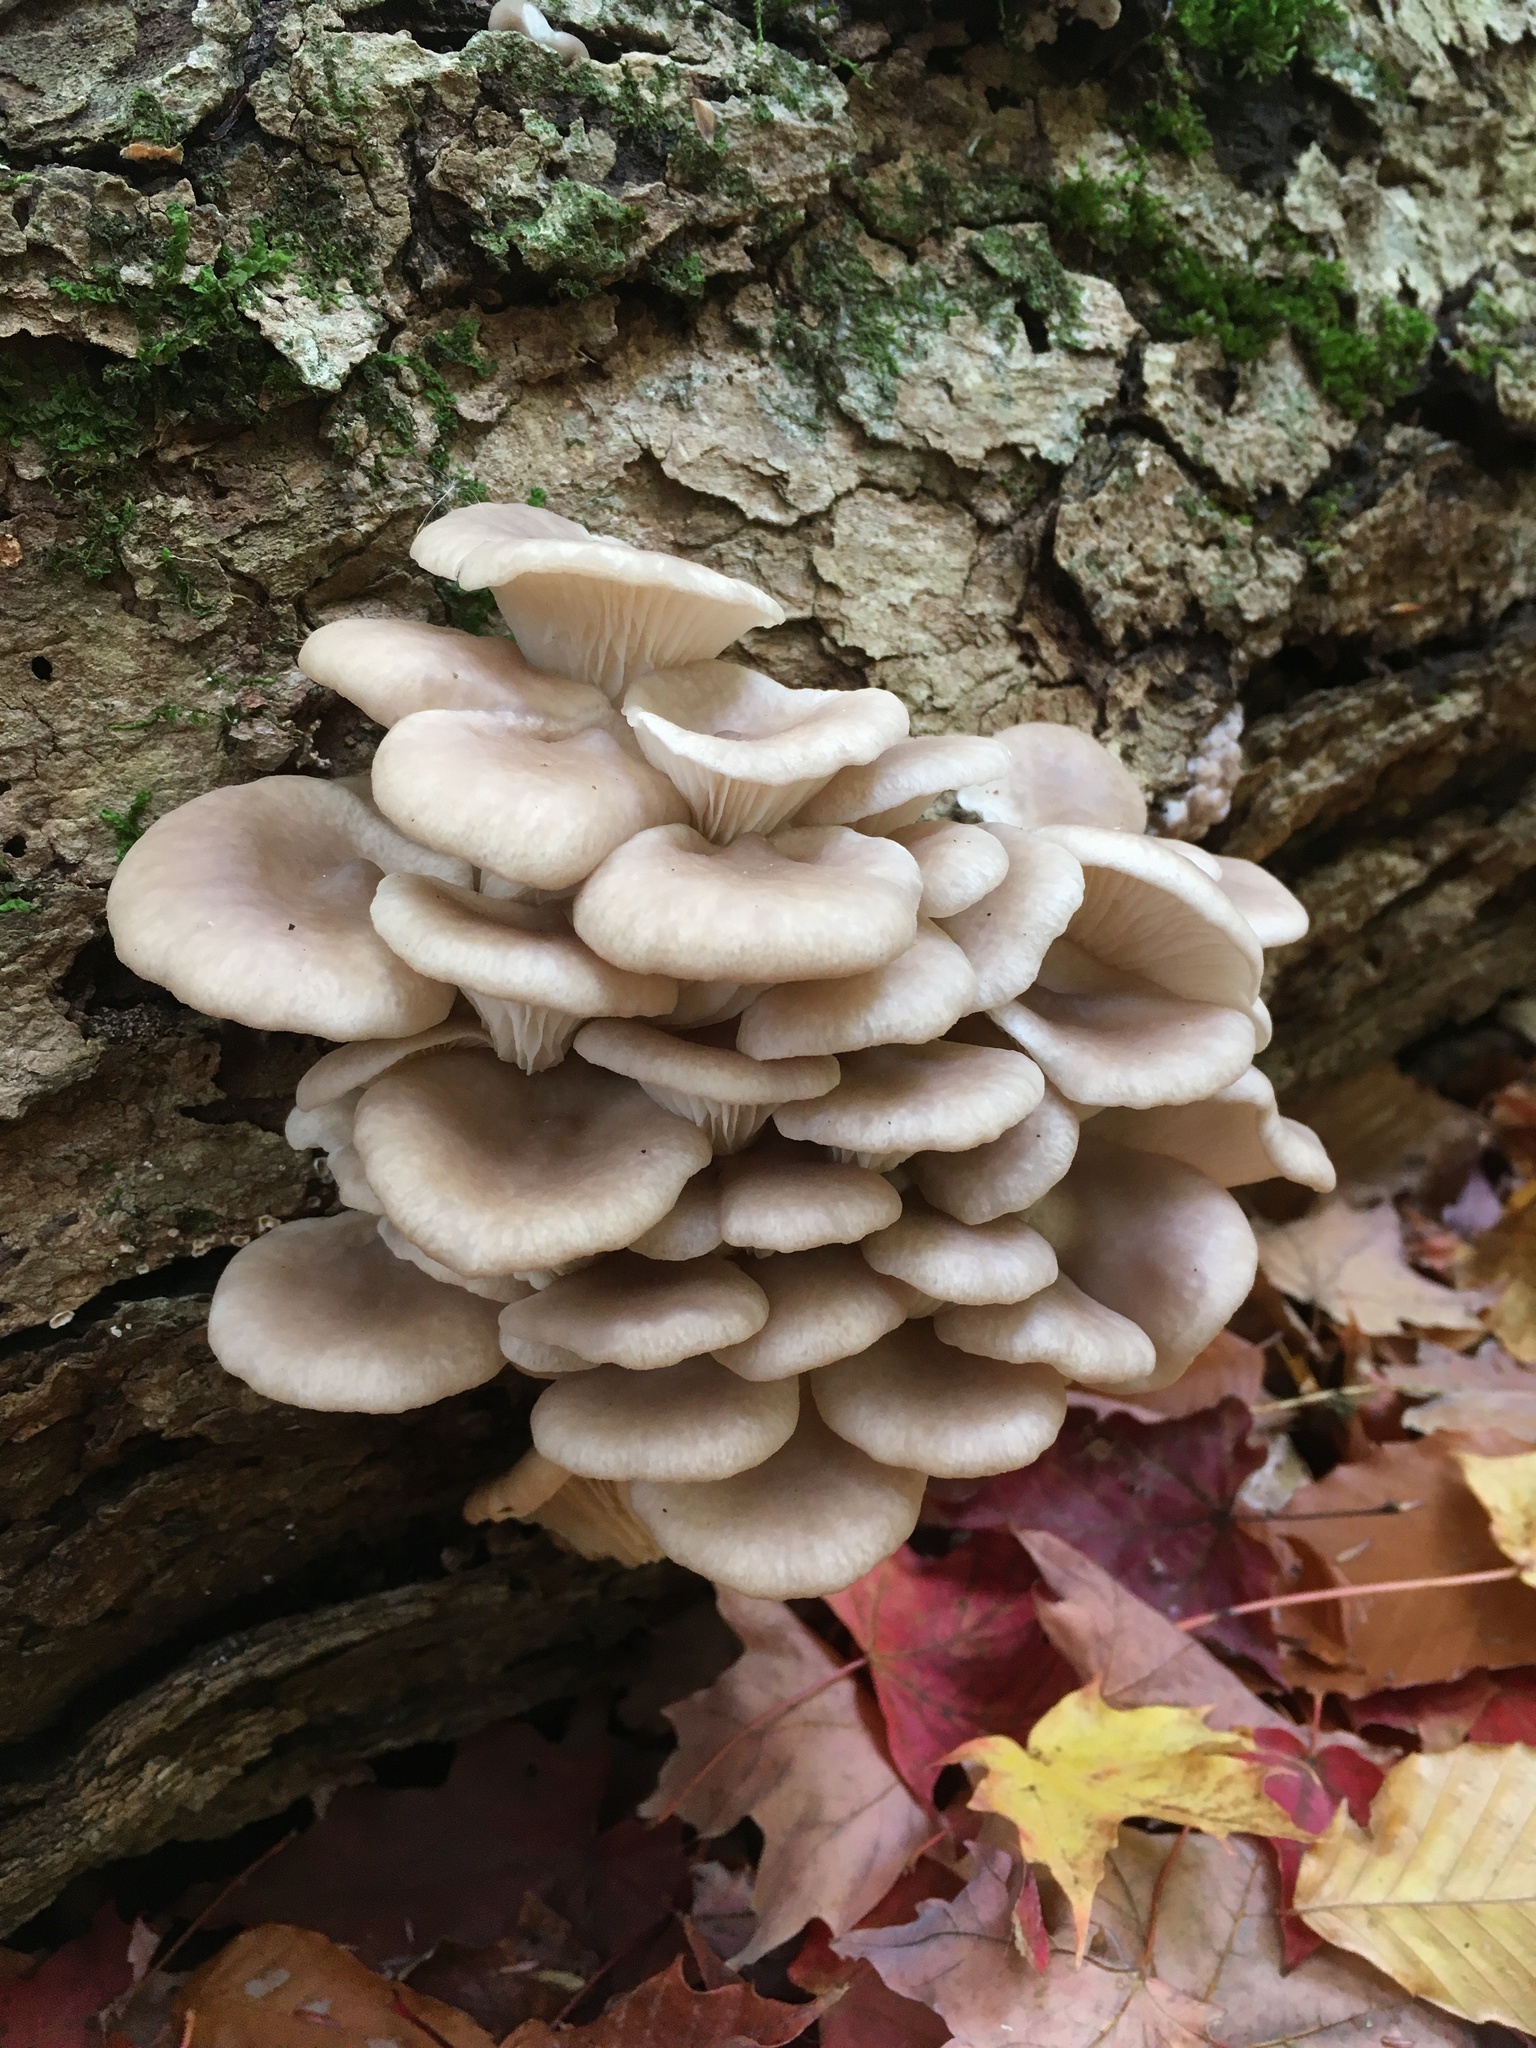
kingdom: Fungi
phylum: Basidiomycota
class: Agaricomycetes
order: Agaricales
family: Pleurotaceae
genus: Pleurotus
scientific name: Pleurotus ostreatus
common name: Oyster mushroom
